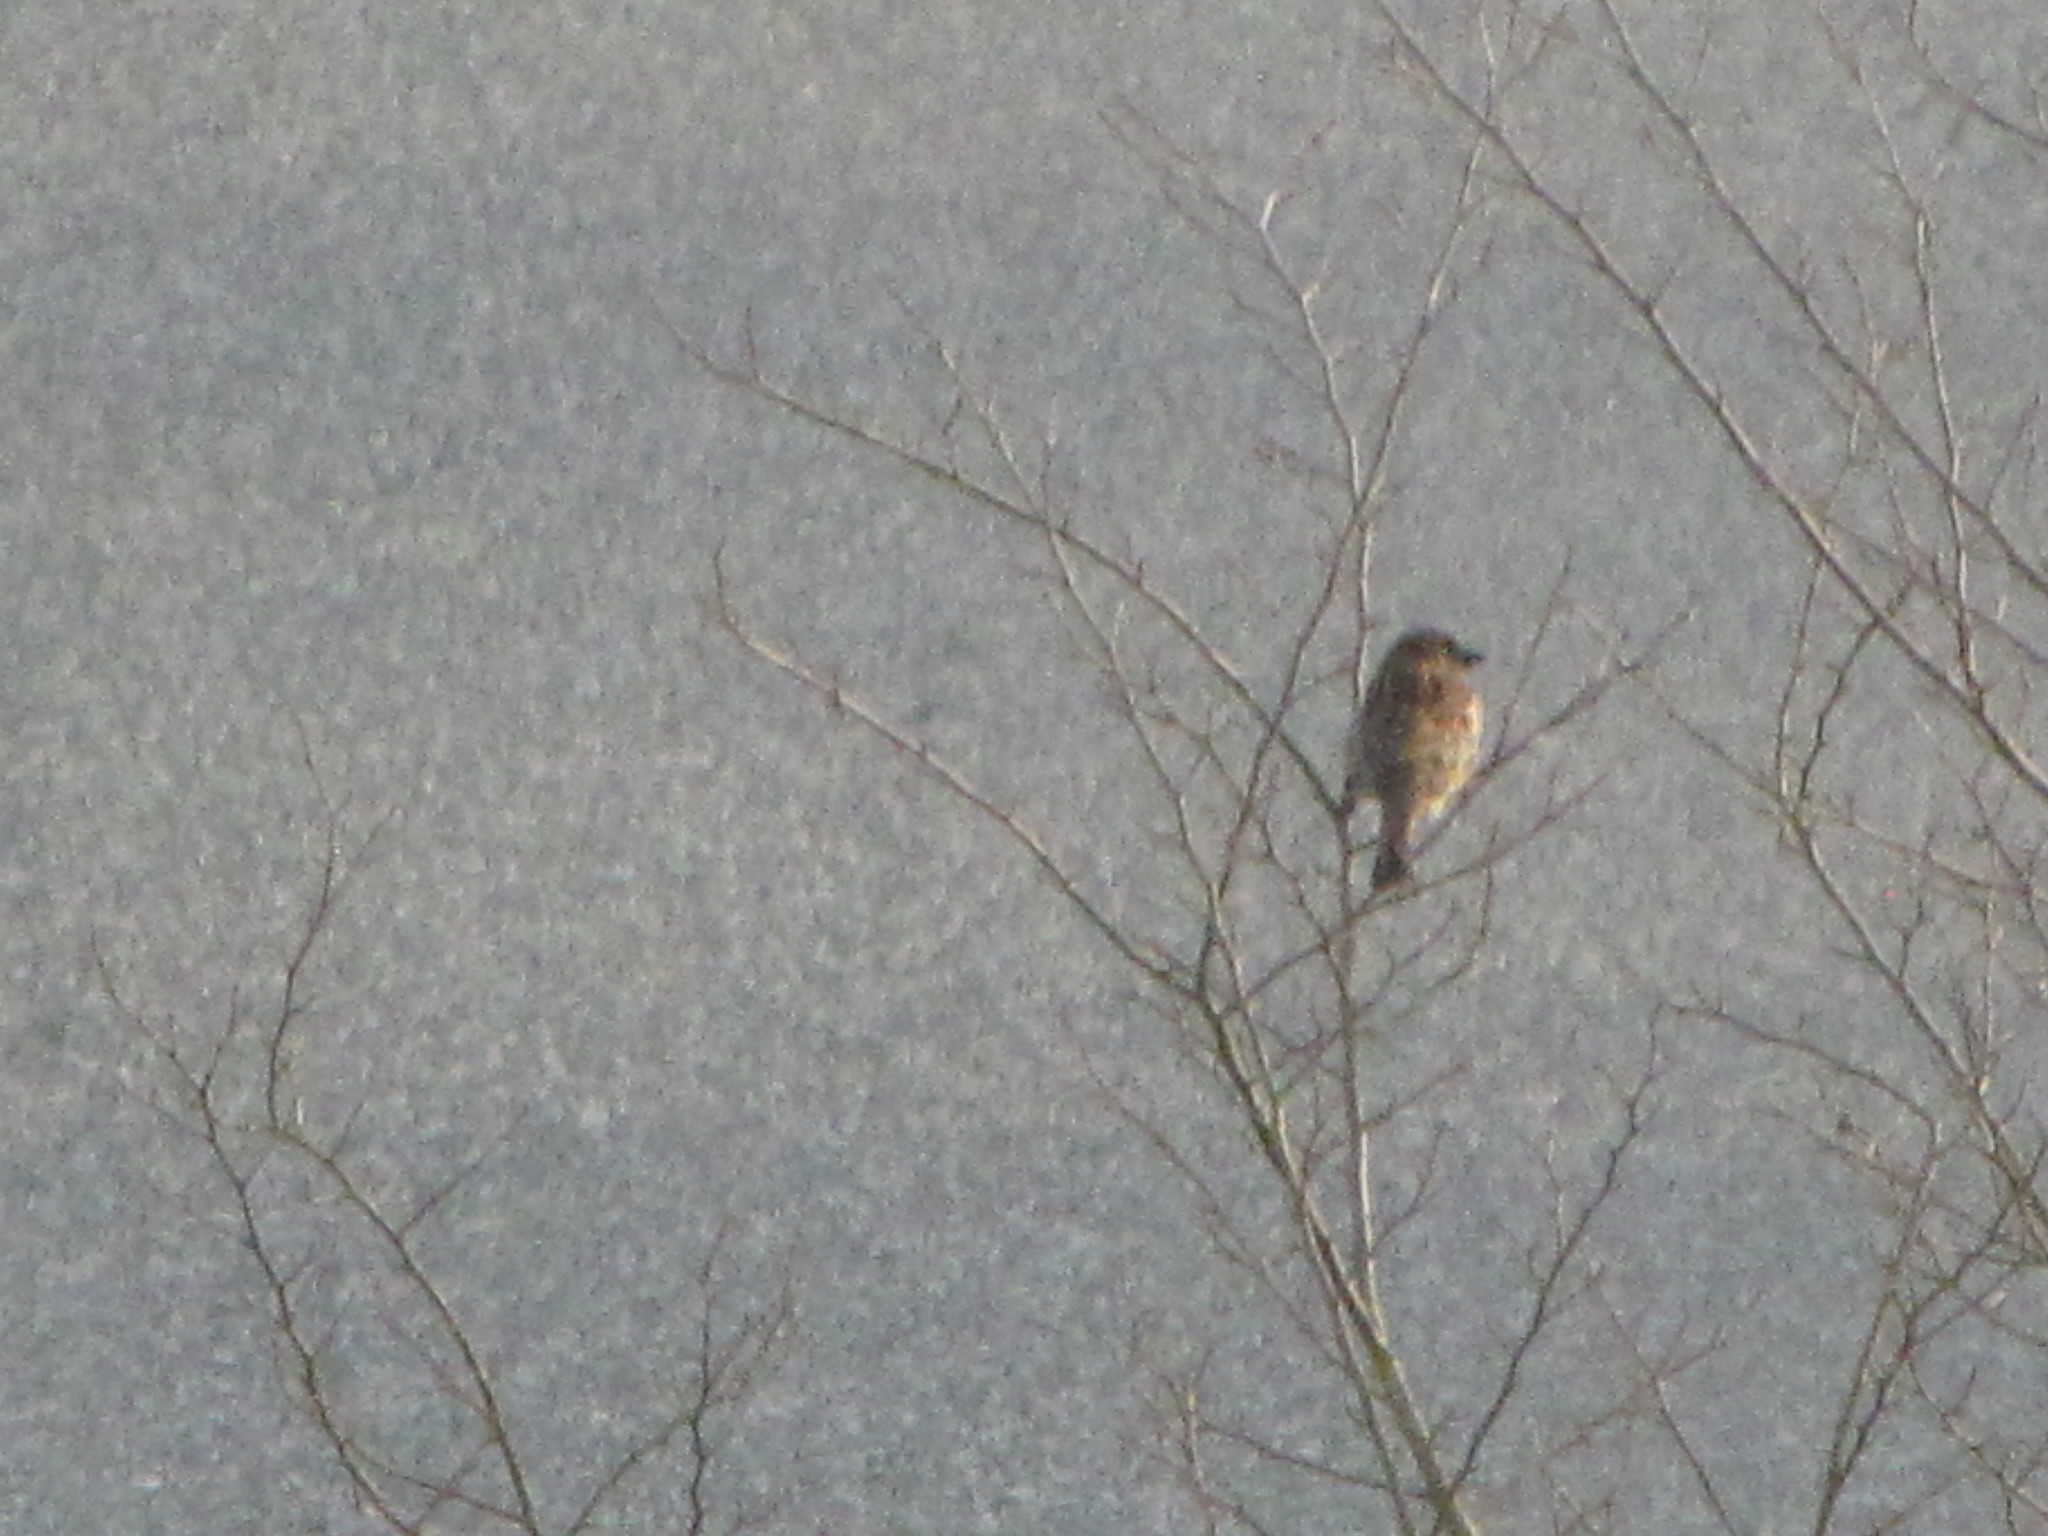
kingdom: Animalia
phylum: Chordata
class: Aves
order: Passeriformes
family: Passeridae
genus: Passer
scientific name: Passer domesticus
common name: House sparrow
